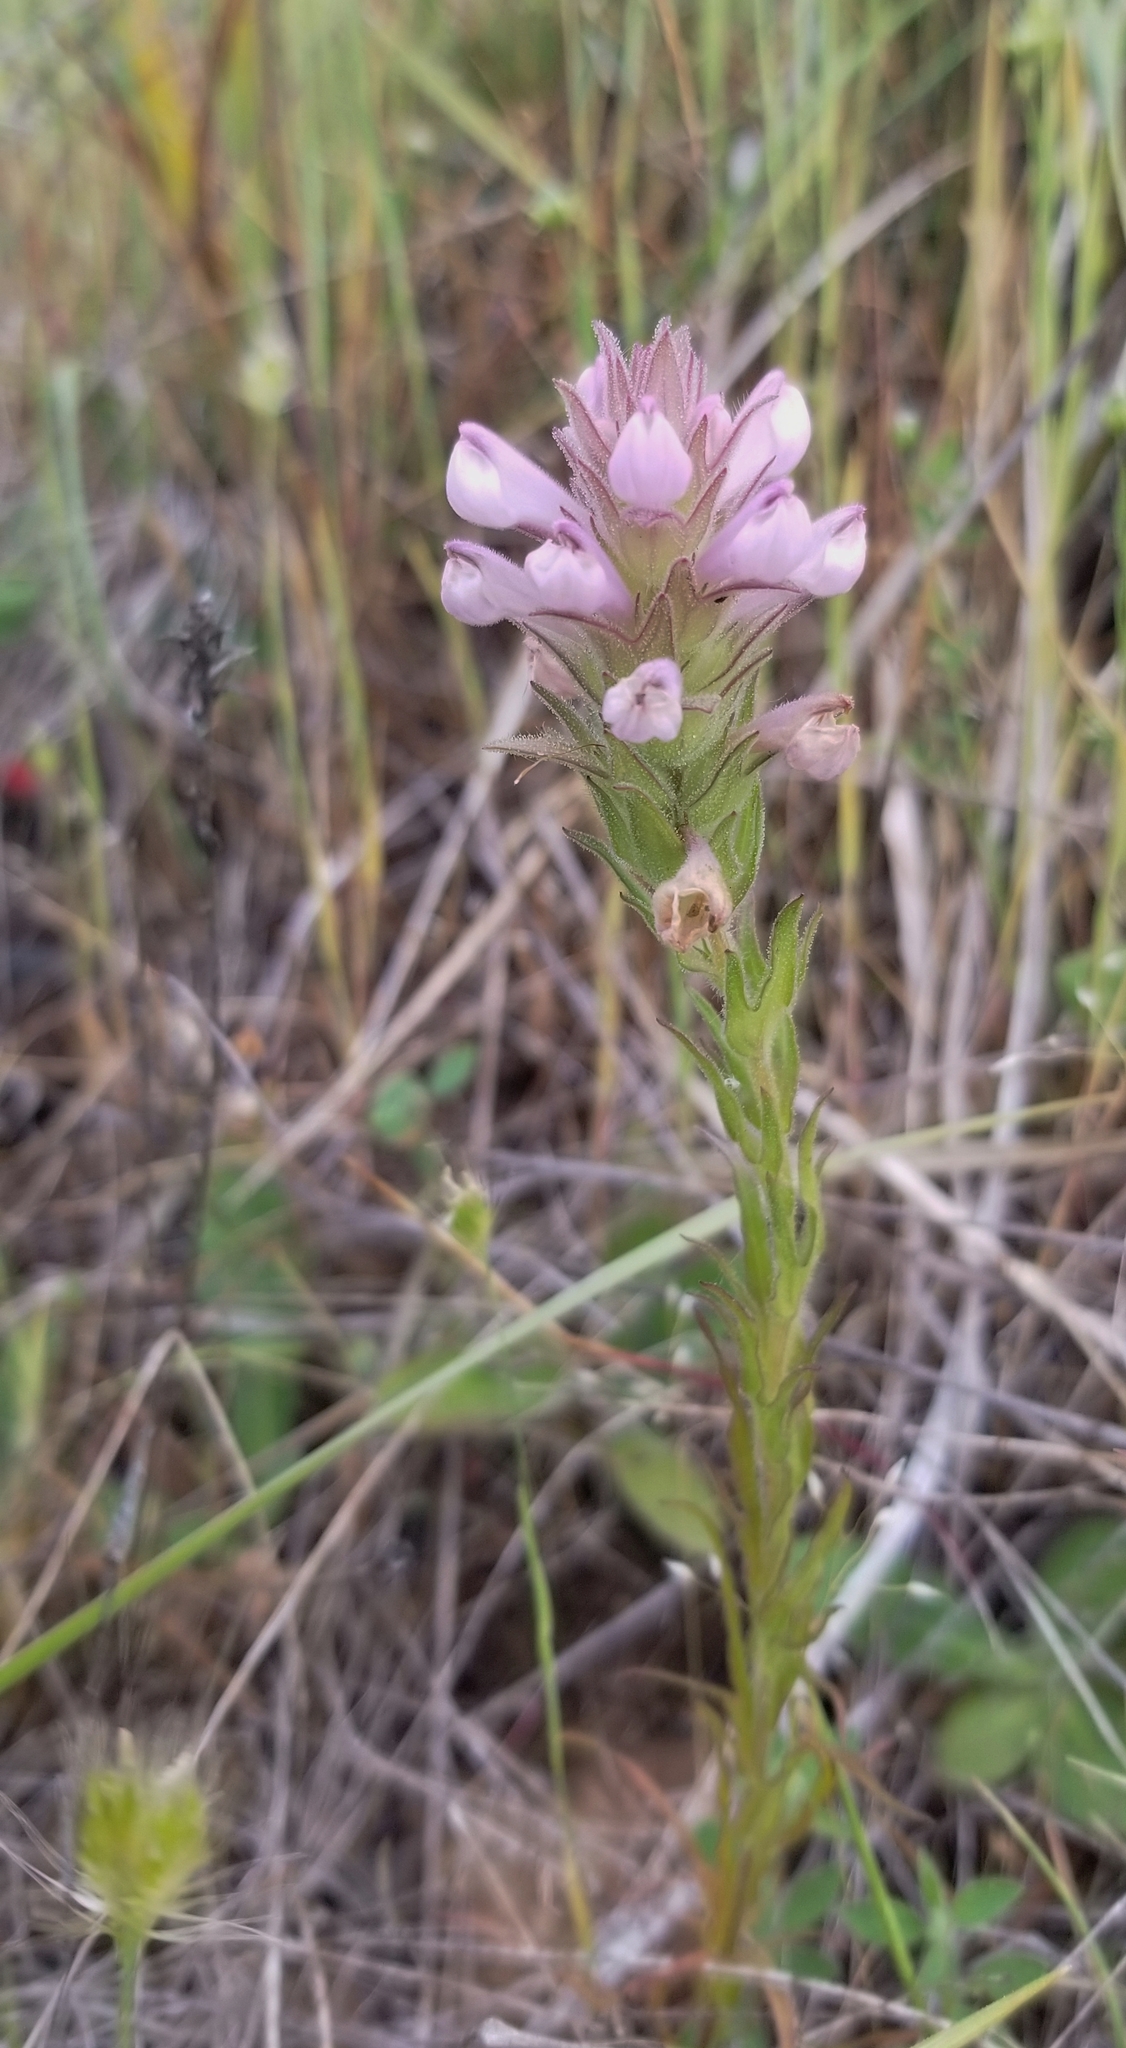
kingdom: Plantae
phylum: Tracheophyta
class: Magnoliopsida
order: Lamiales
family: Orobanchaceae
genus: Orthocarpus
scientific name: Orthocarpus bracteosus
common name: Rosy owl's-clover
